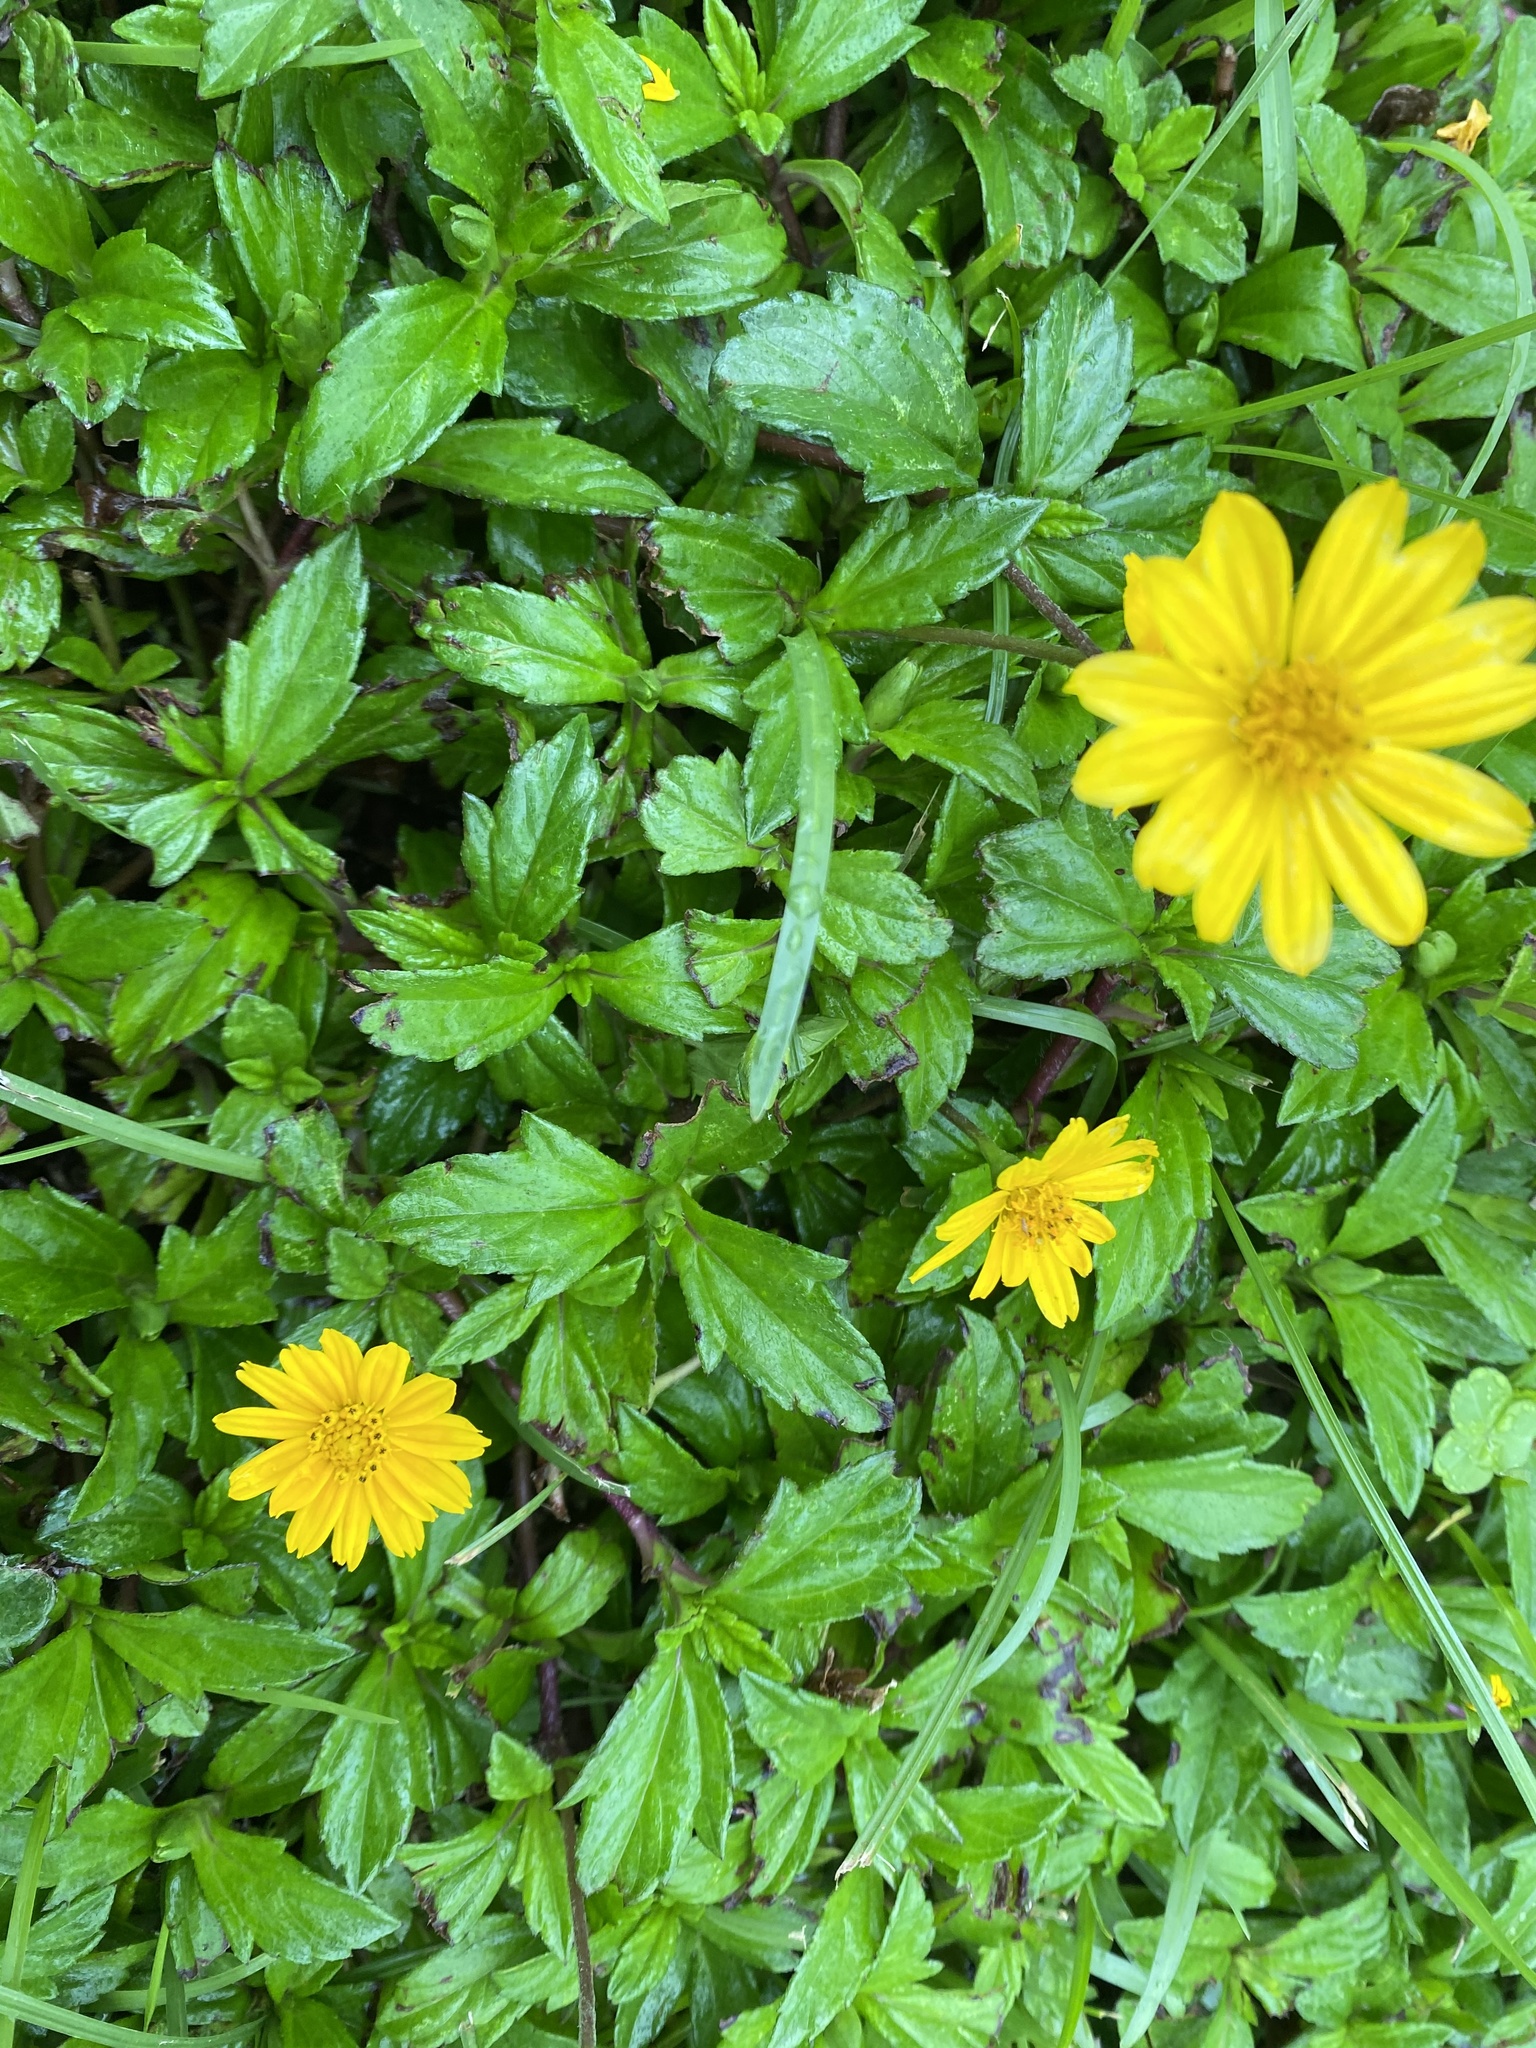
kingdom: Plantae
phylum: Tracheophyta
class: Magnoliopsida
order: Asterales
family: Asteraceae
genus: Sphagneticola
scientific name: Sphagneticola trilobata
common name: Bay biscayne creeping-oxeye
